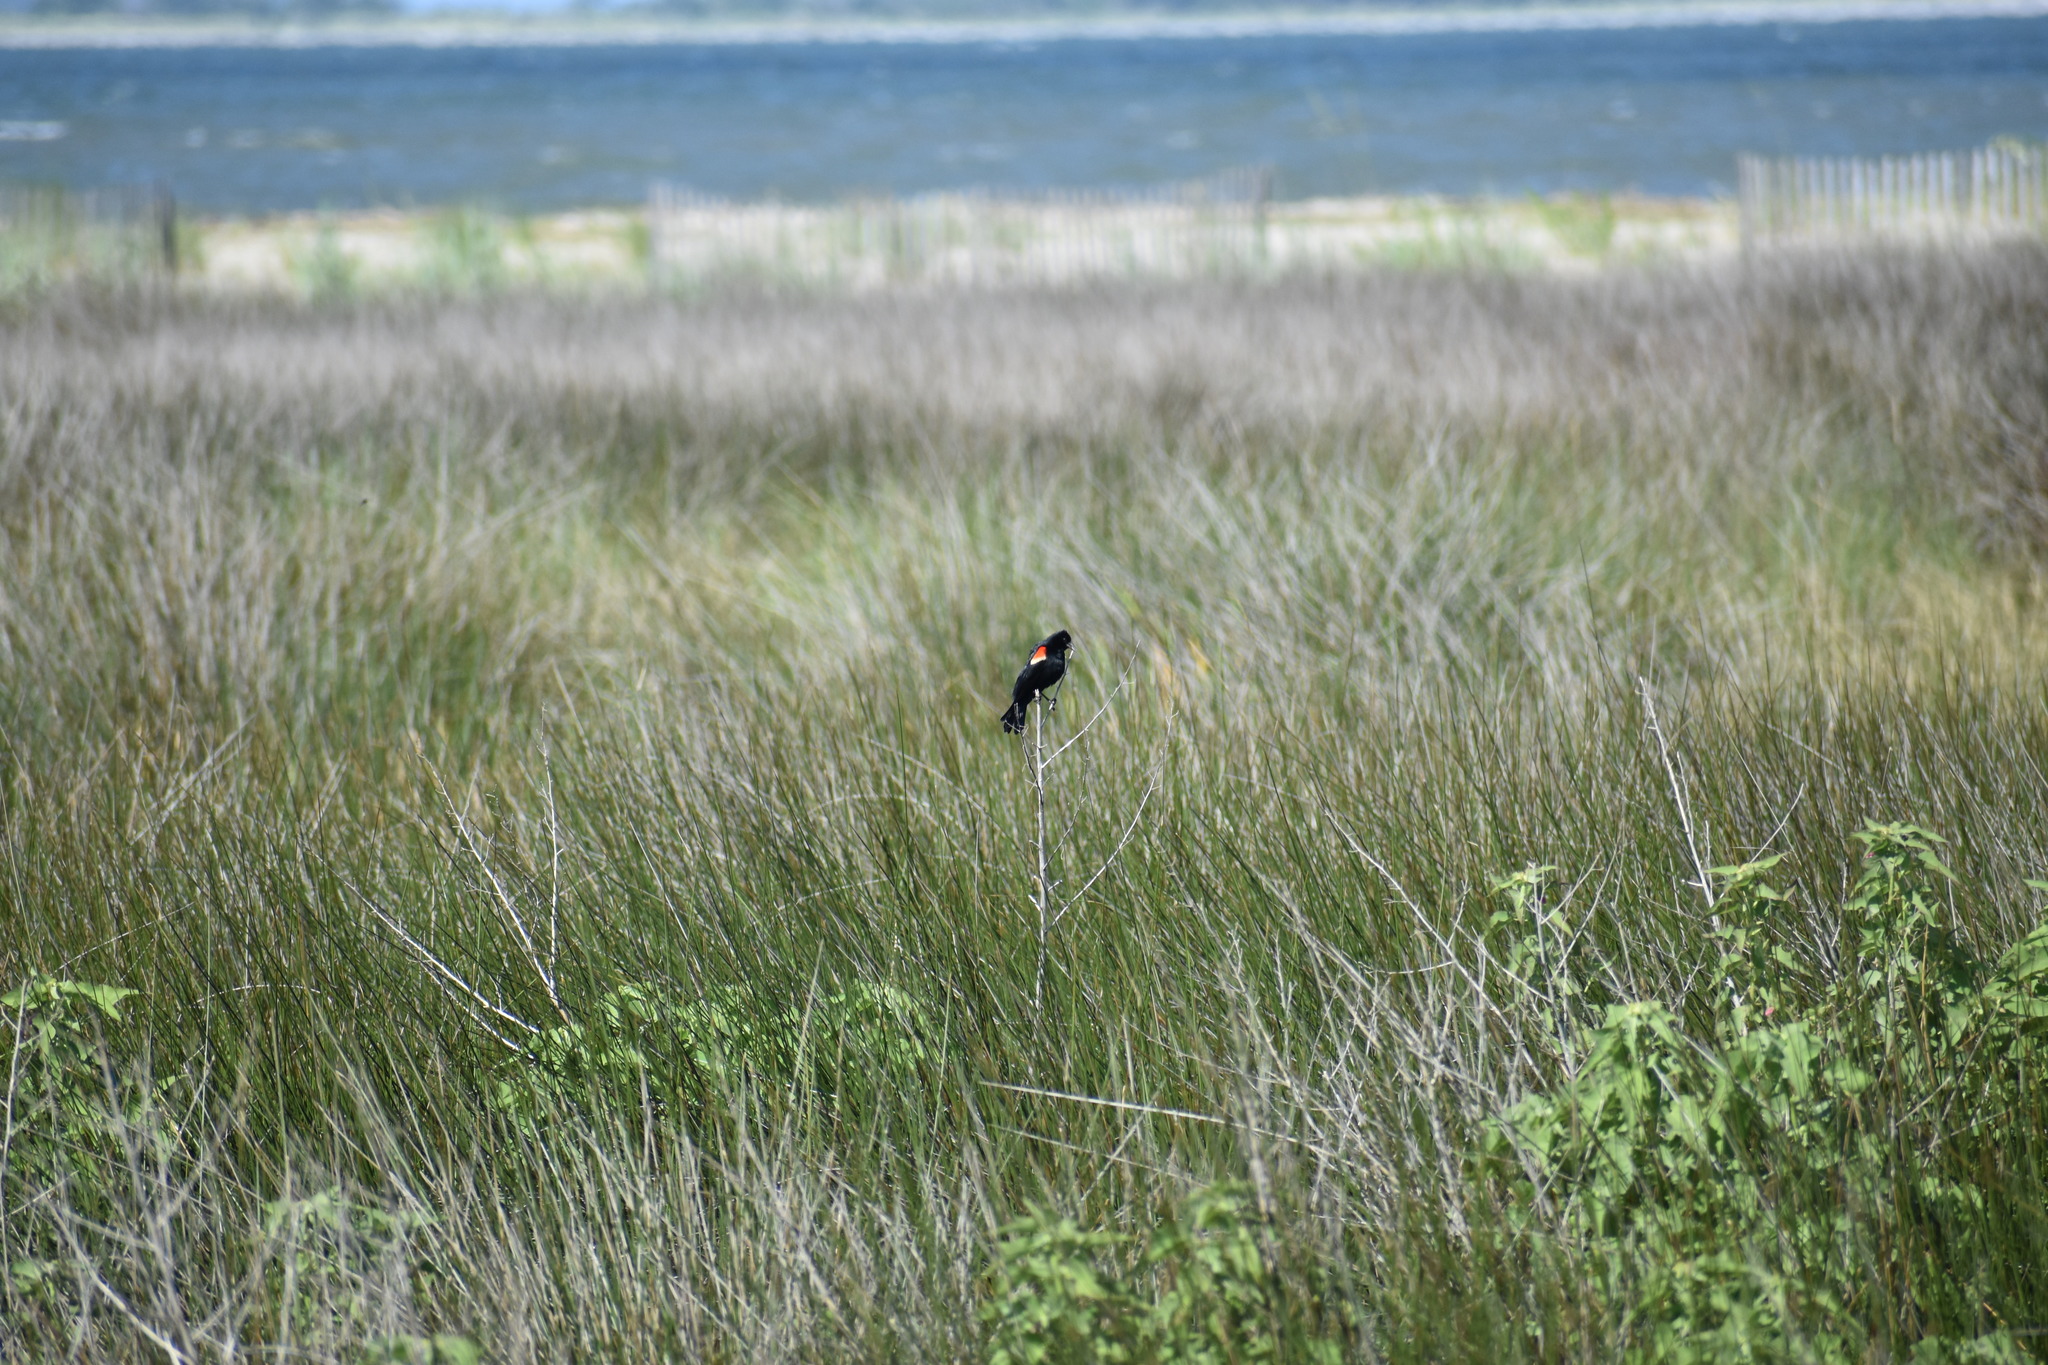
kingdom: Animalia
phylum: Chordata
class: Aves
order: Passeriformes
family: Icteridae
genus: Agelaius
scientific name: Agelaius phoeniceus
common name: Red-winged blackbird
